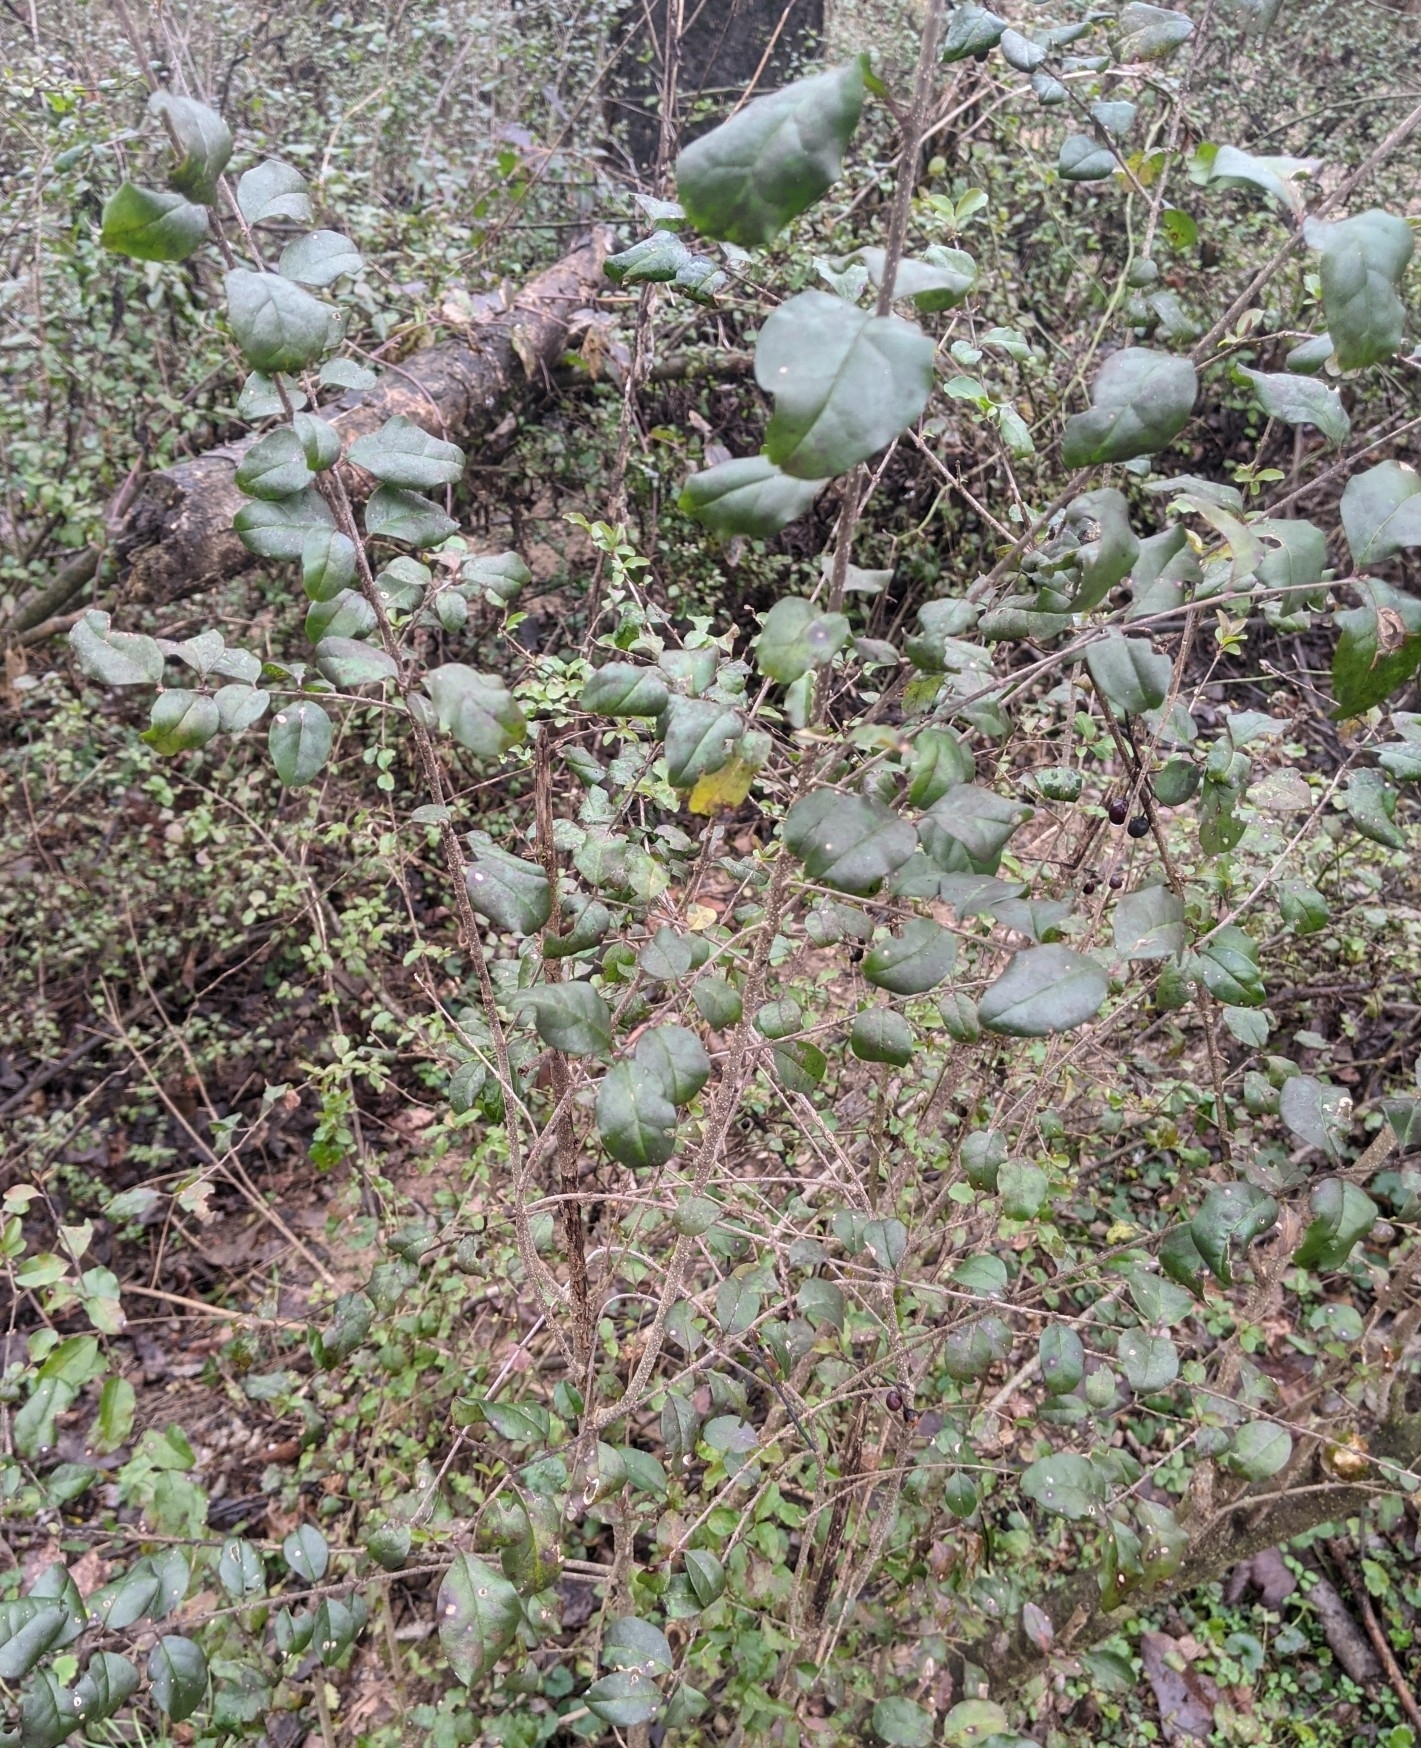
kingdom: Plantae
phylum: Tracheophyta
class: Magnoliopsida
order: Lamiales
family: Oleaceae
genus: Ligustrum
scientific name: Ligustrum sinense
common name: Chinese privet
